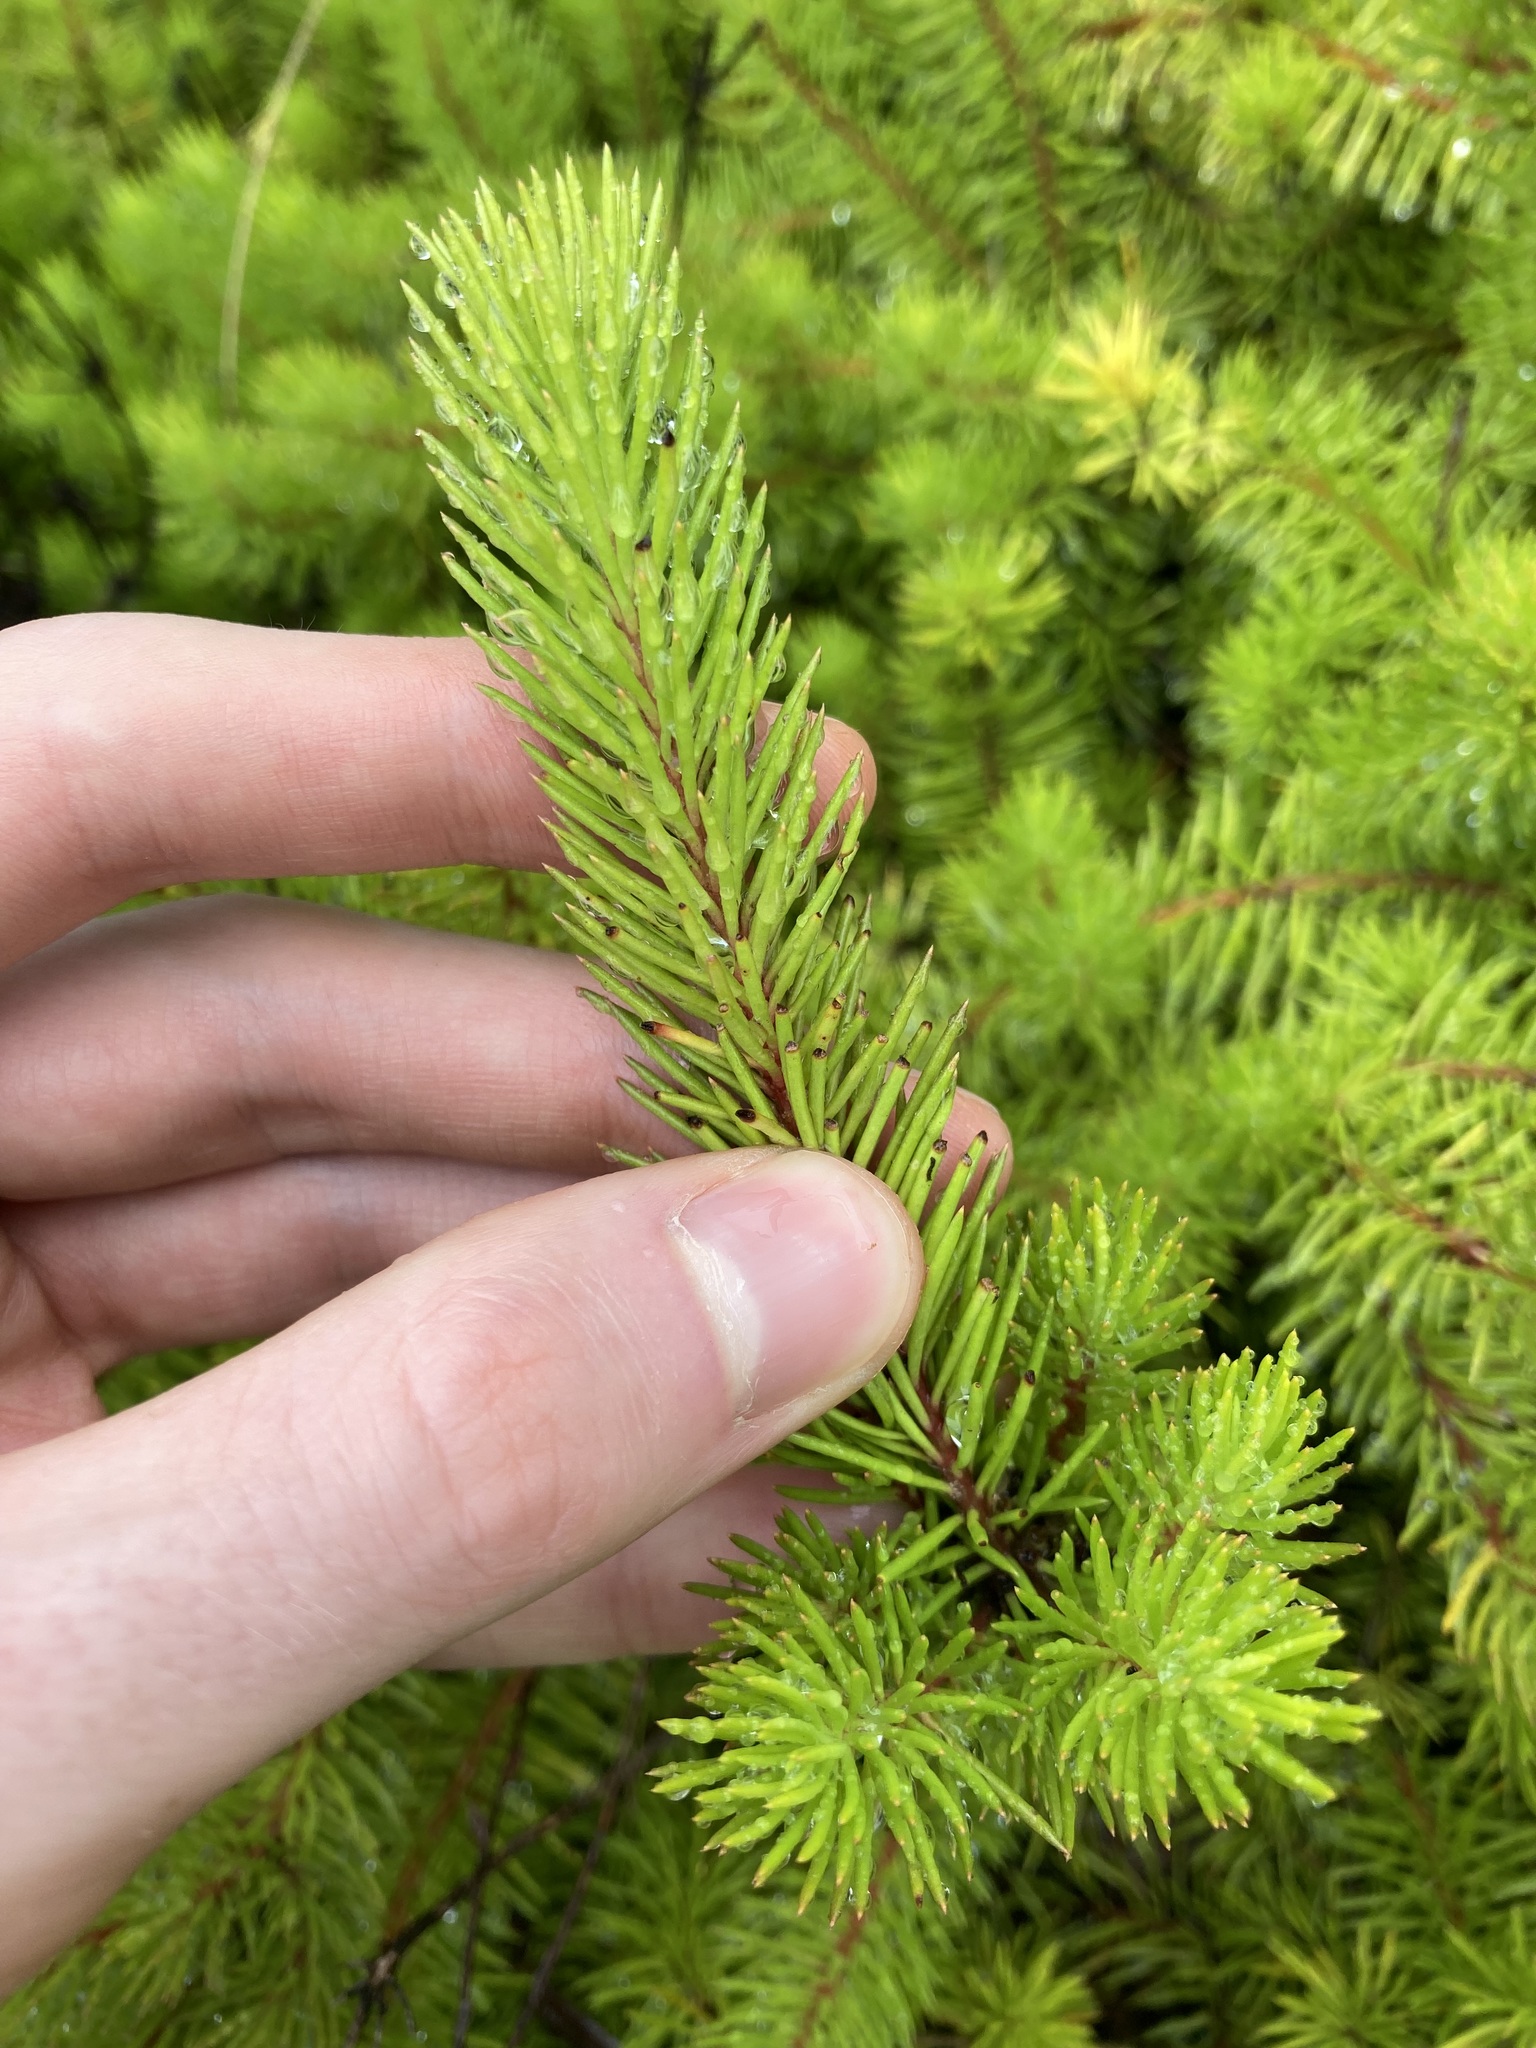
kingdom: Plantae
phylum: Tracheophyta
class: Magnoliopsida
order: Proteales
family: Proteaceae
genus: Persoonia
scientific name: Persoonia chamaepitys
